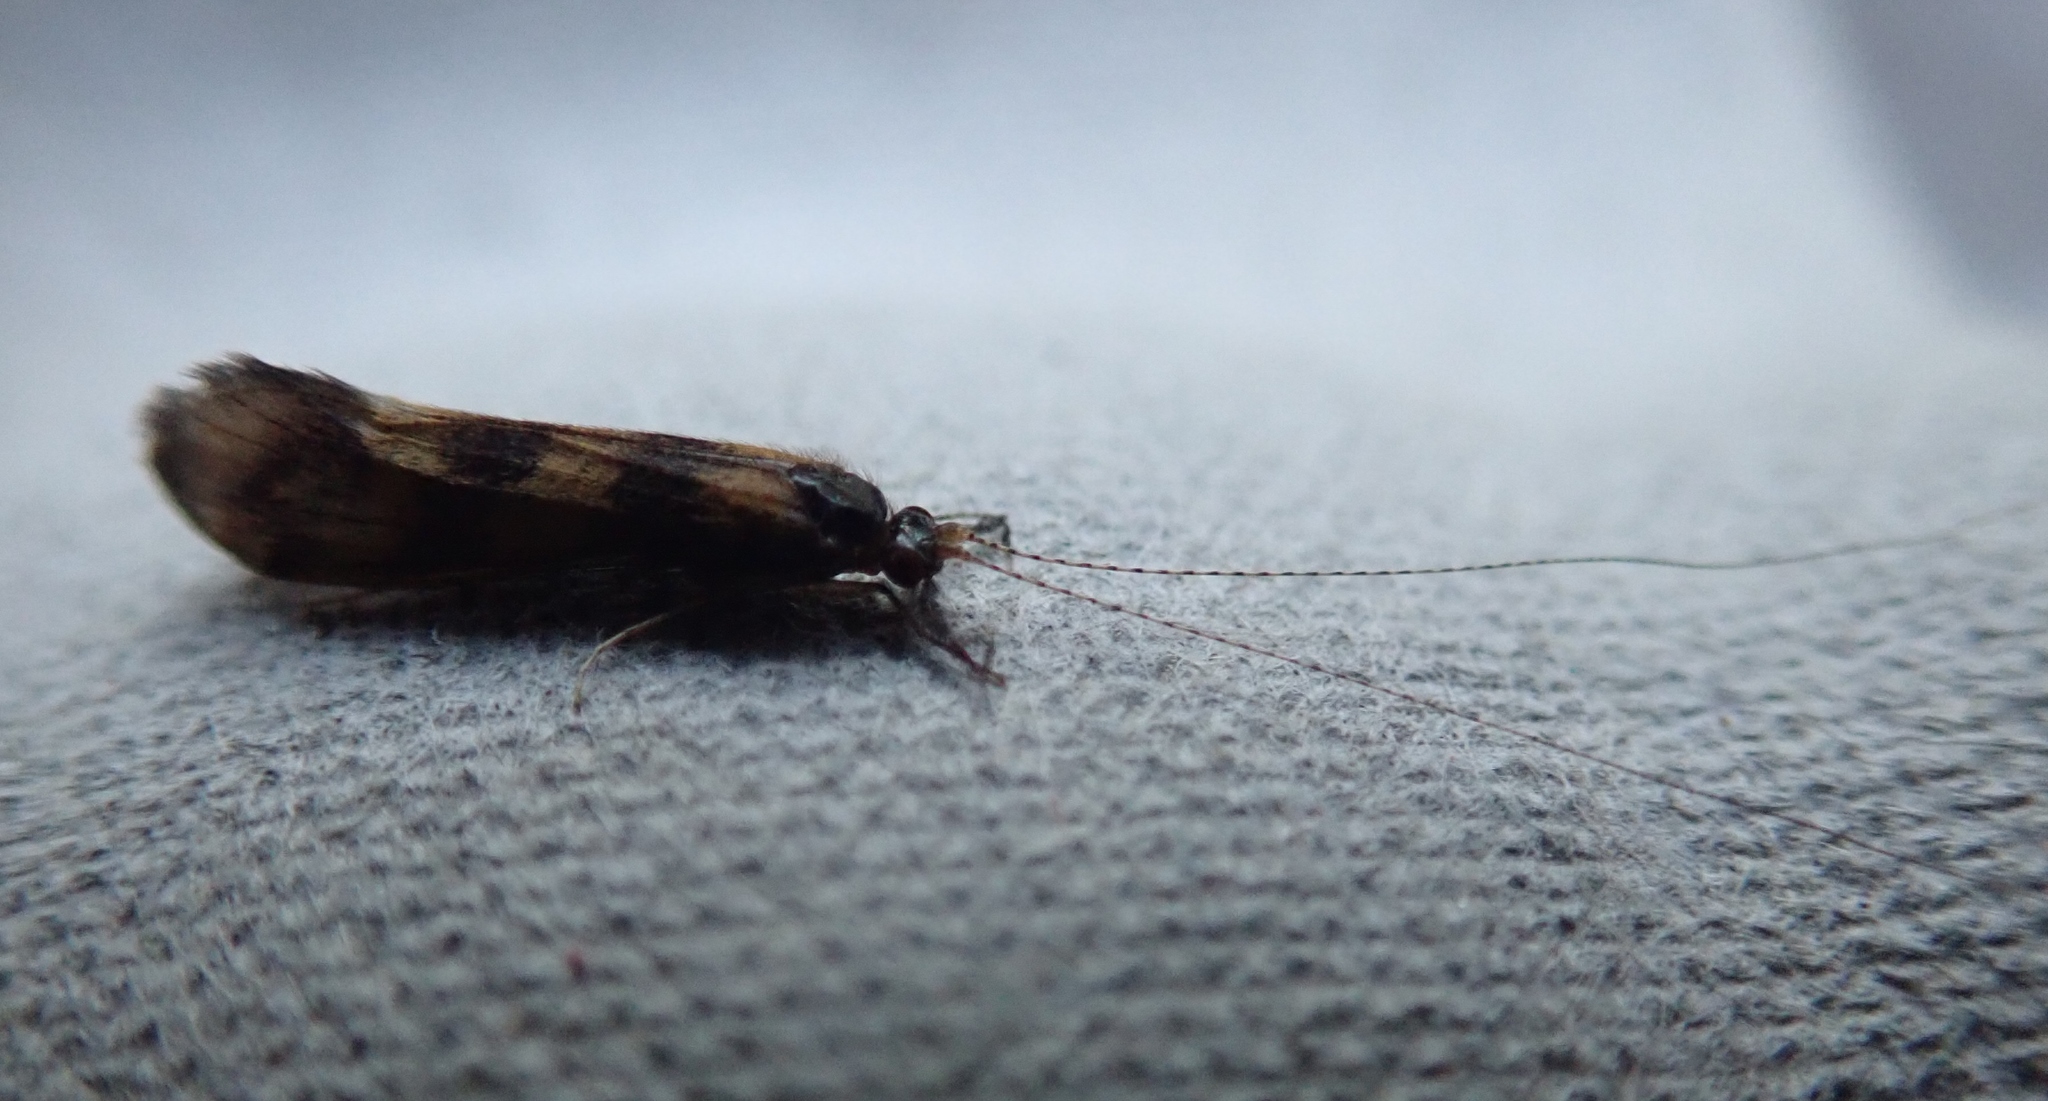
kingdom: Animalia
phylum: Arthropoda
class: Insecta
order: Trichoptera
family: Leptoceridae
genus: Mystacides
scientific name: Mystacides longicornis
